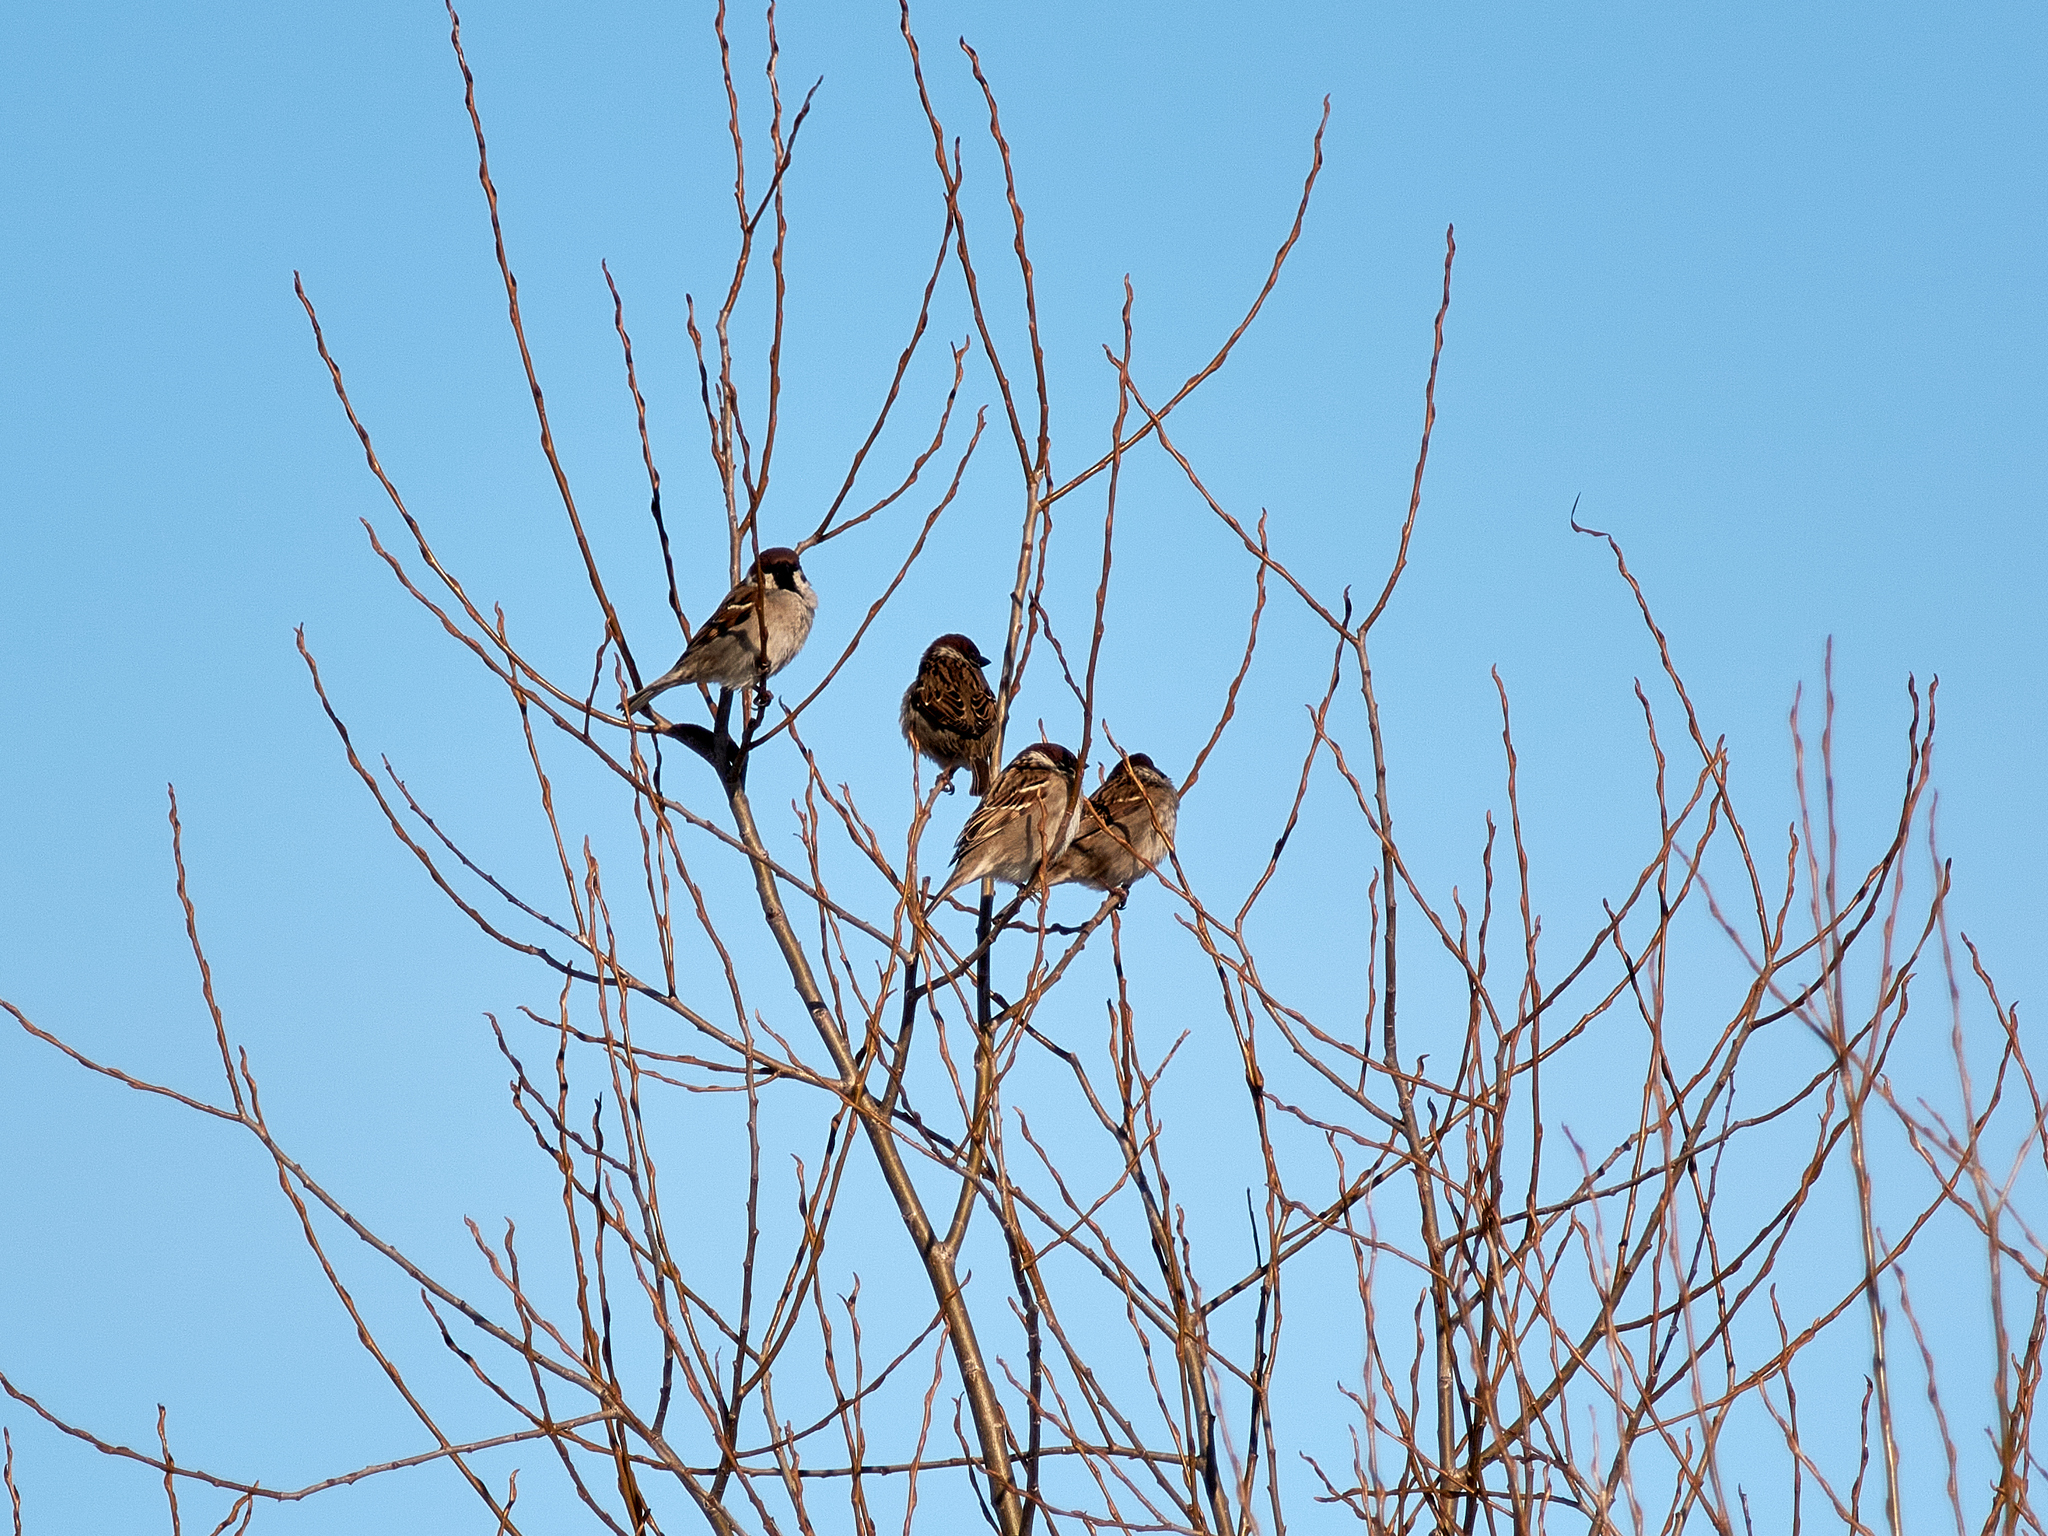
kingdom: Animalia
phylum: Chordata
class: Aves
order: Passeriformes
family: Passeridae
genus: Passer
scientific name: Passer montanus
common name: Eurasian tree sparrow
